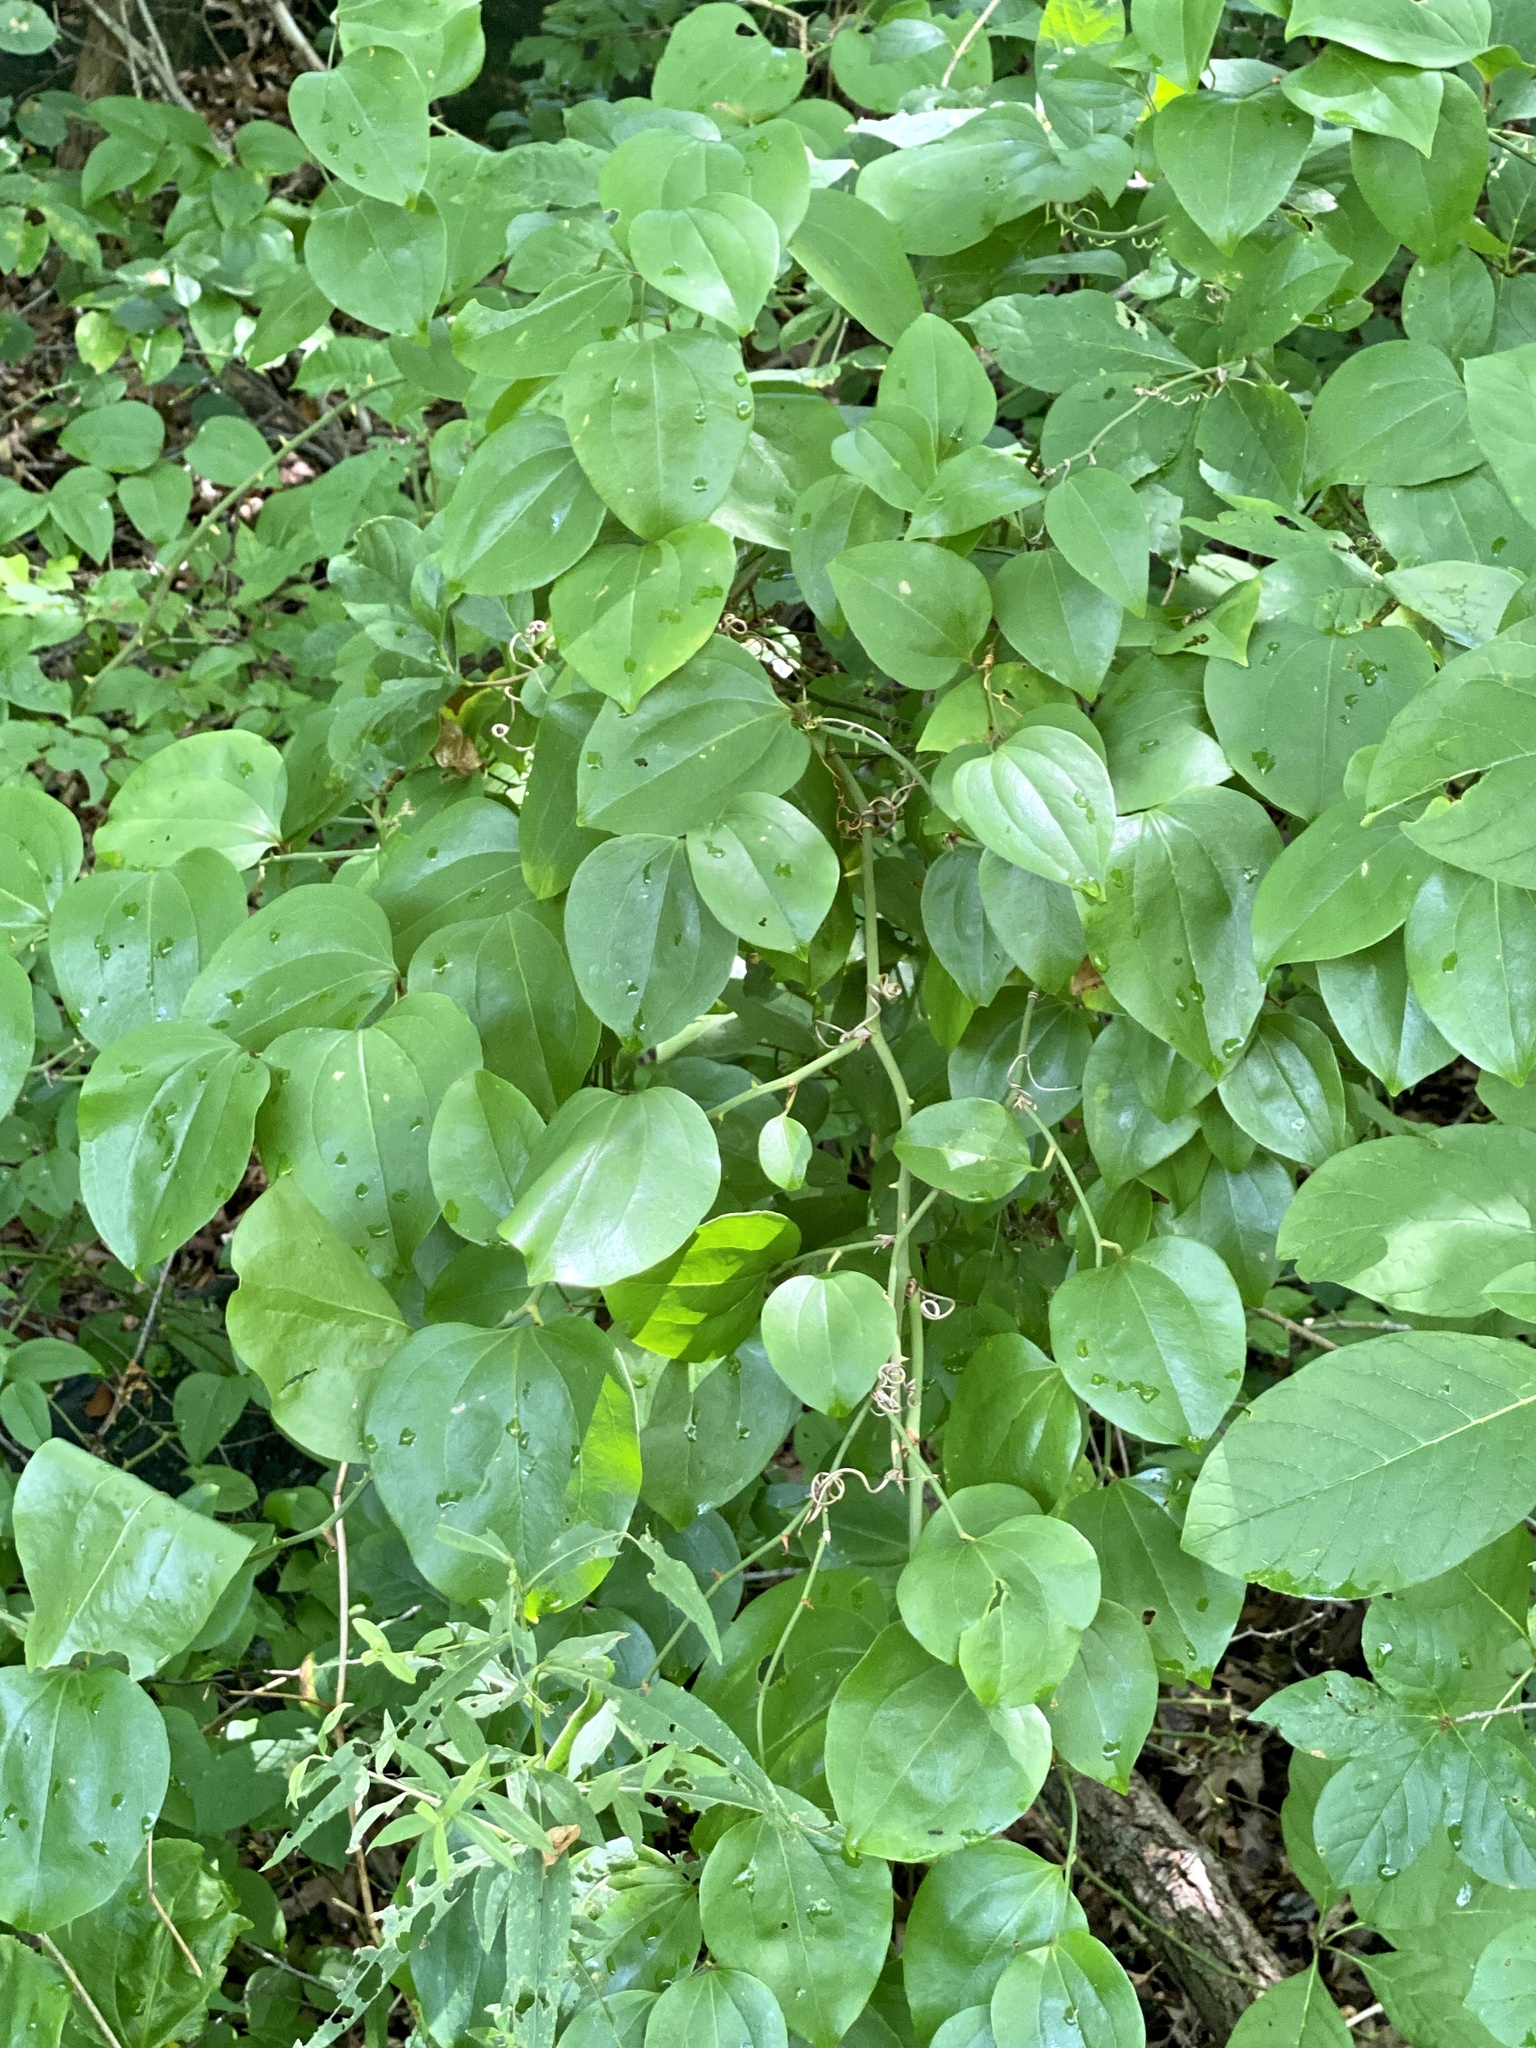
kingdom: Plantae
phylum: Tracheophyta
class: Liliopsida
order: Liliales
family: Smilacaceae
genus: Smilax
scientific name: Smilax rotundifolia
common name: Bullbriar
